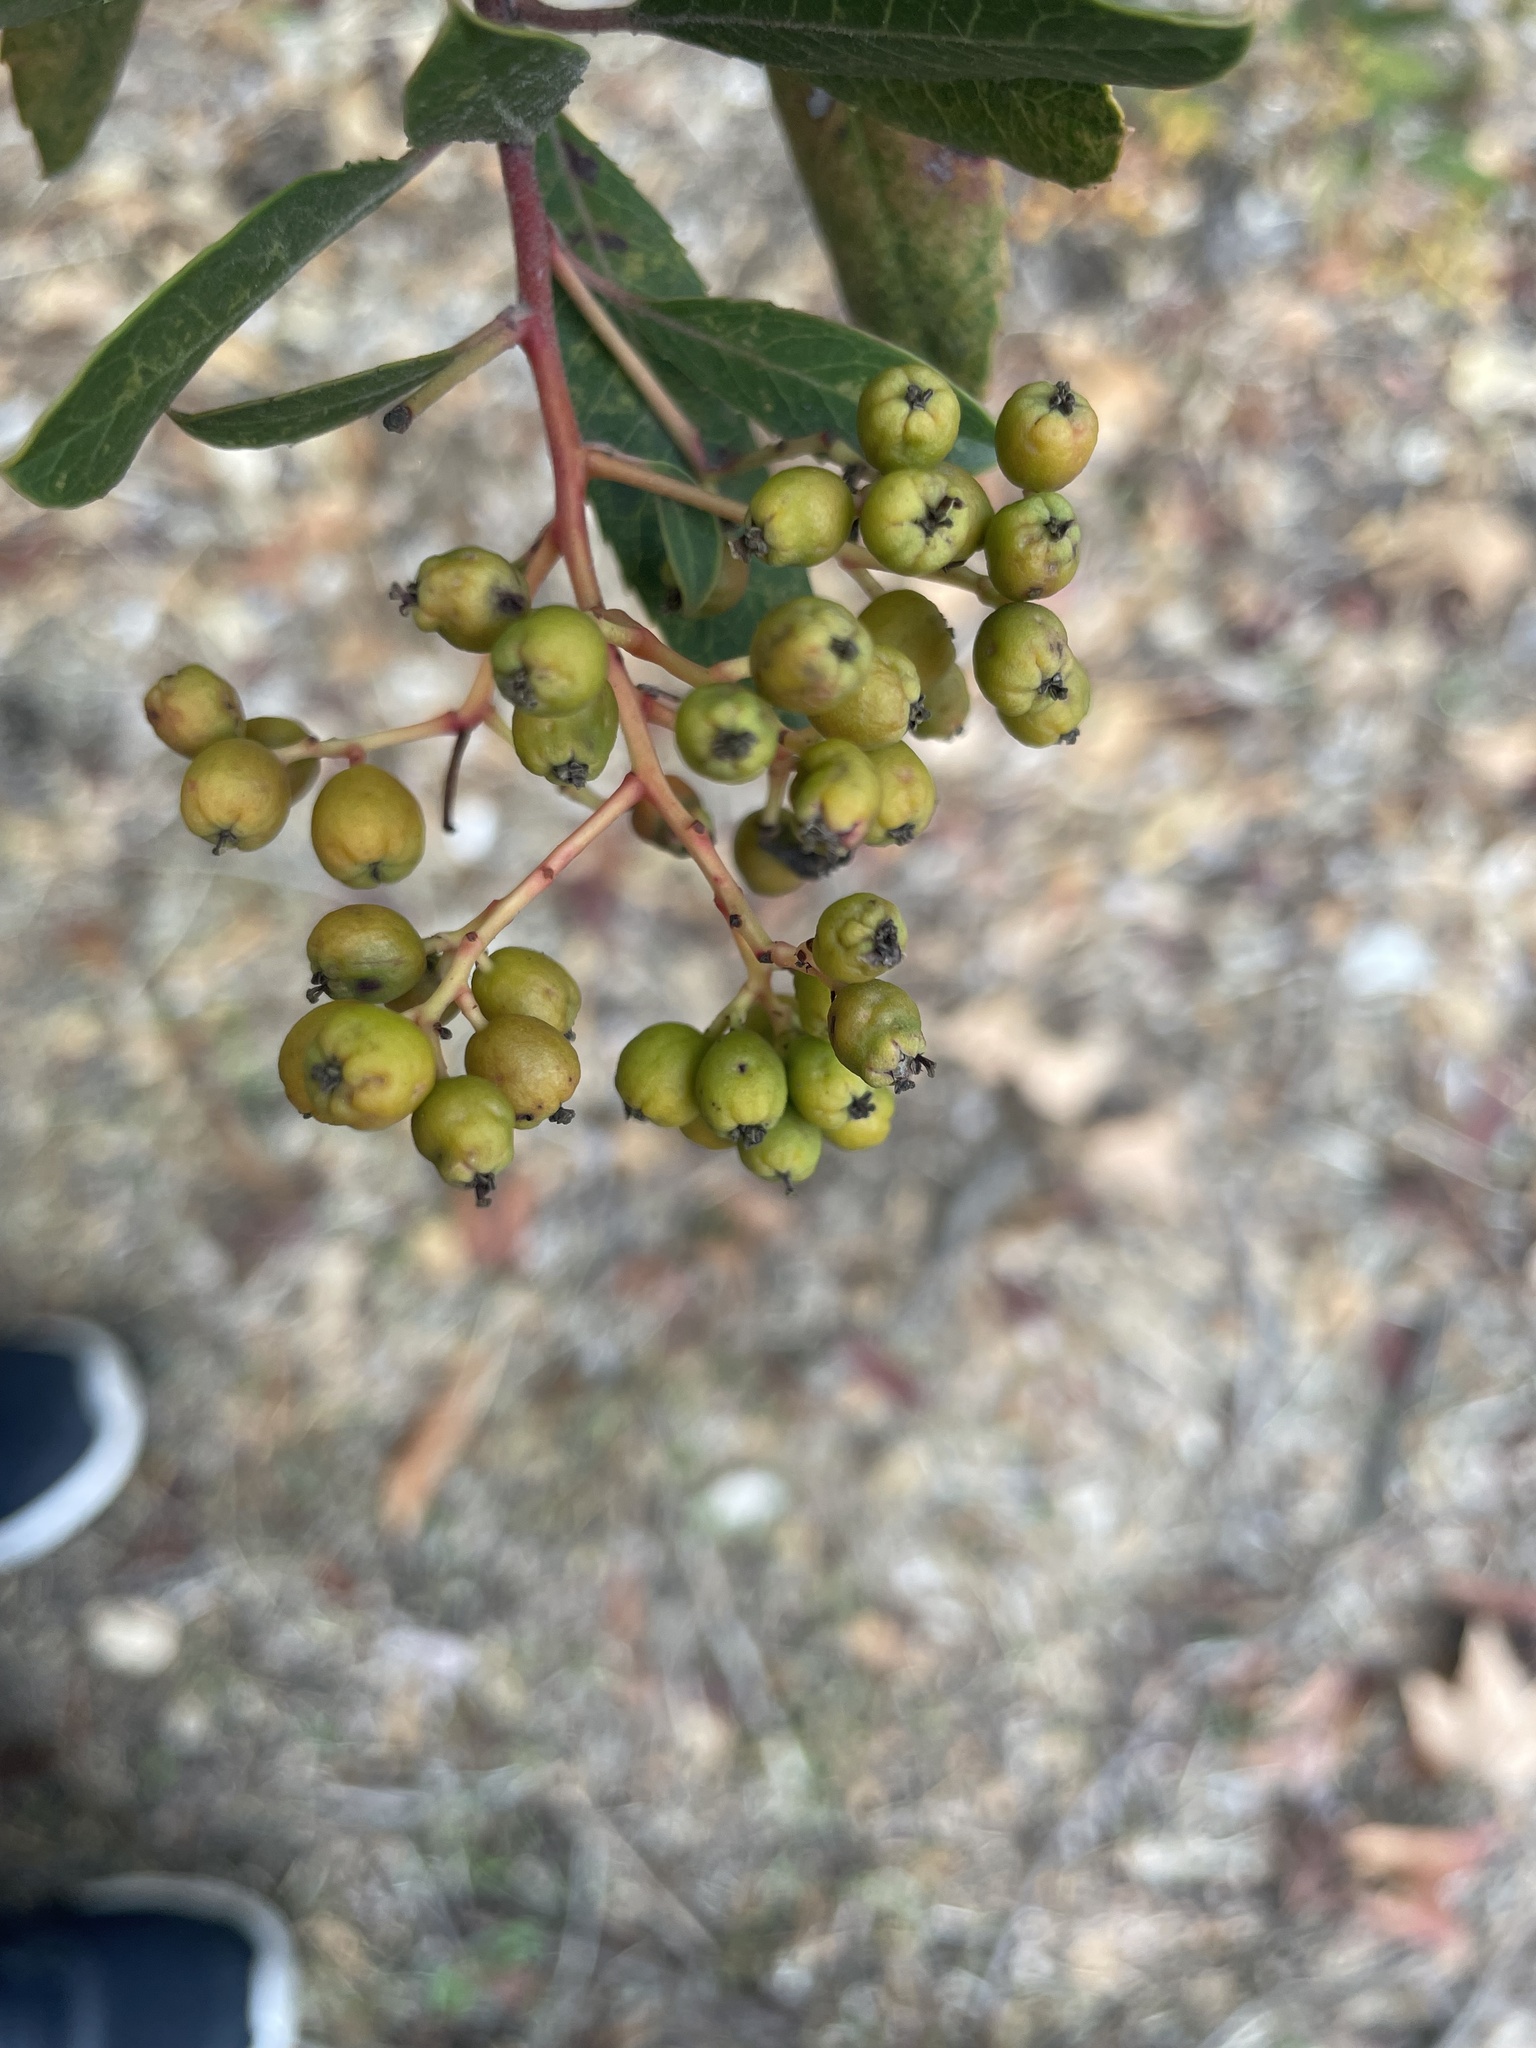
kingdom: Animalia
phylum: Arthropoda
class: Insecta
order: Diptera
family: Cecidomyiidae
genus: Asphondylia
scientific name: Asphondylia photiniae
